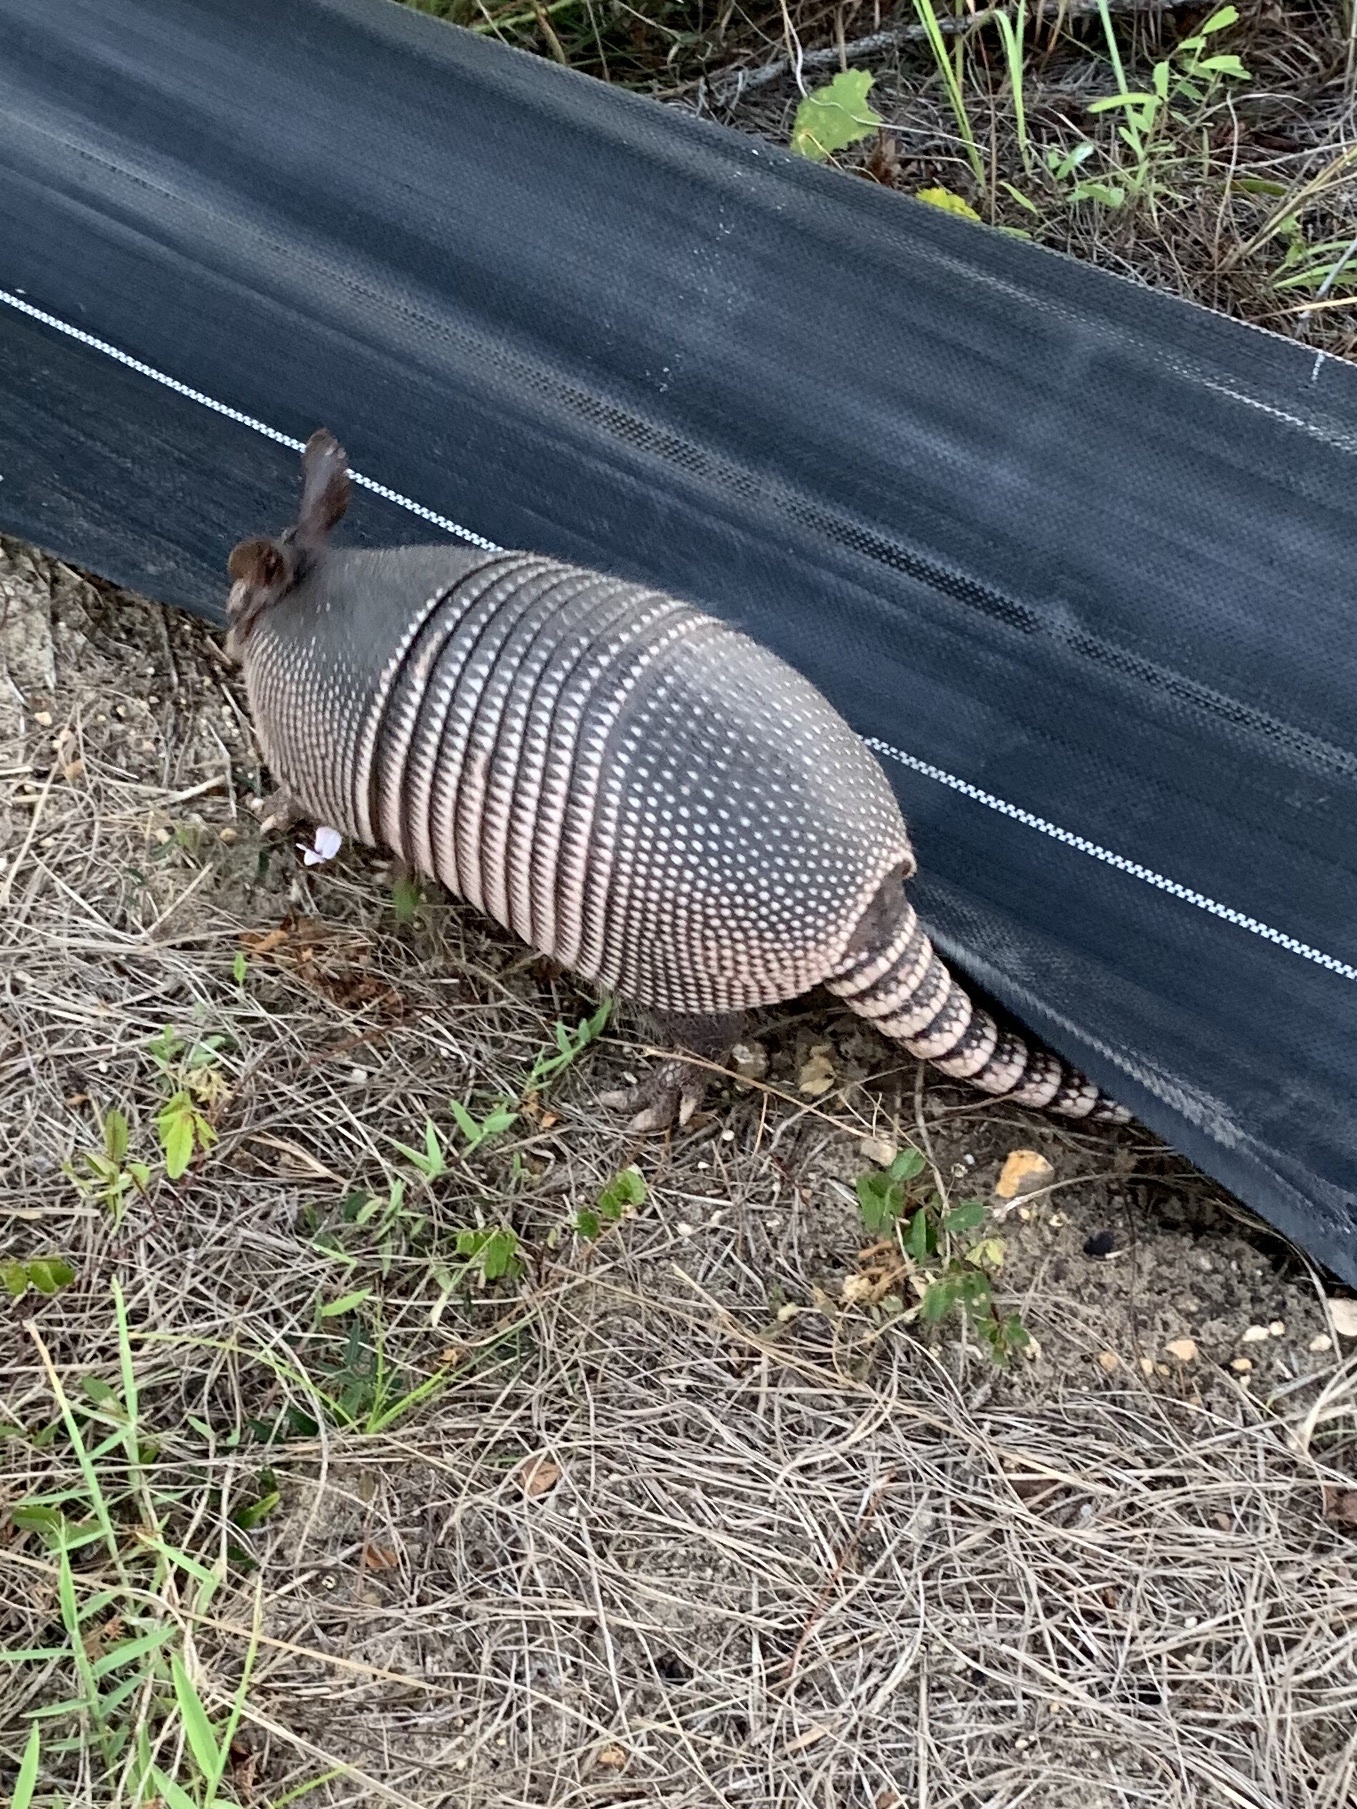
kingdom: Animalia
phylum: Chordata
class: Mammalia
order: Cingulata
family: Dasypodidae
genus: Dasypus
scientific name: Dasypus novemcinctus
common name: Nine-banded armadillo
